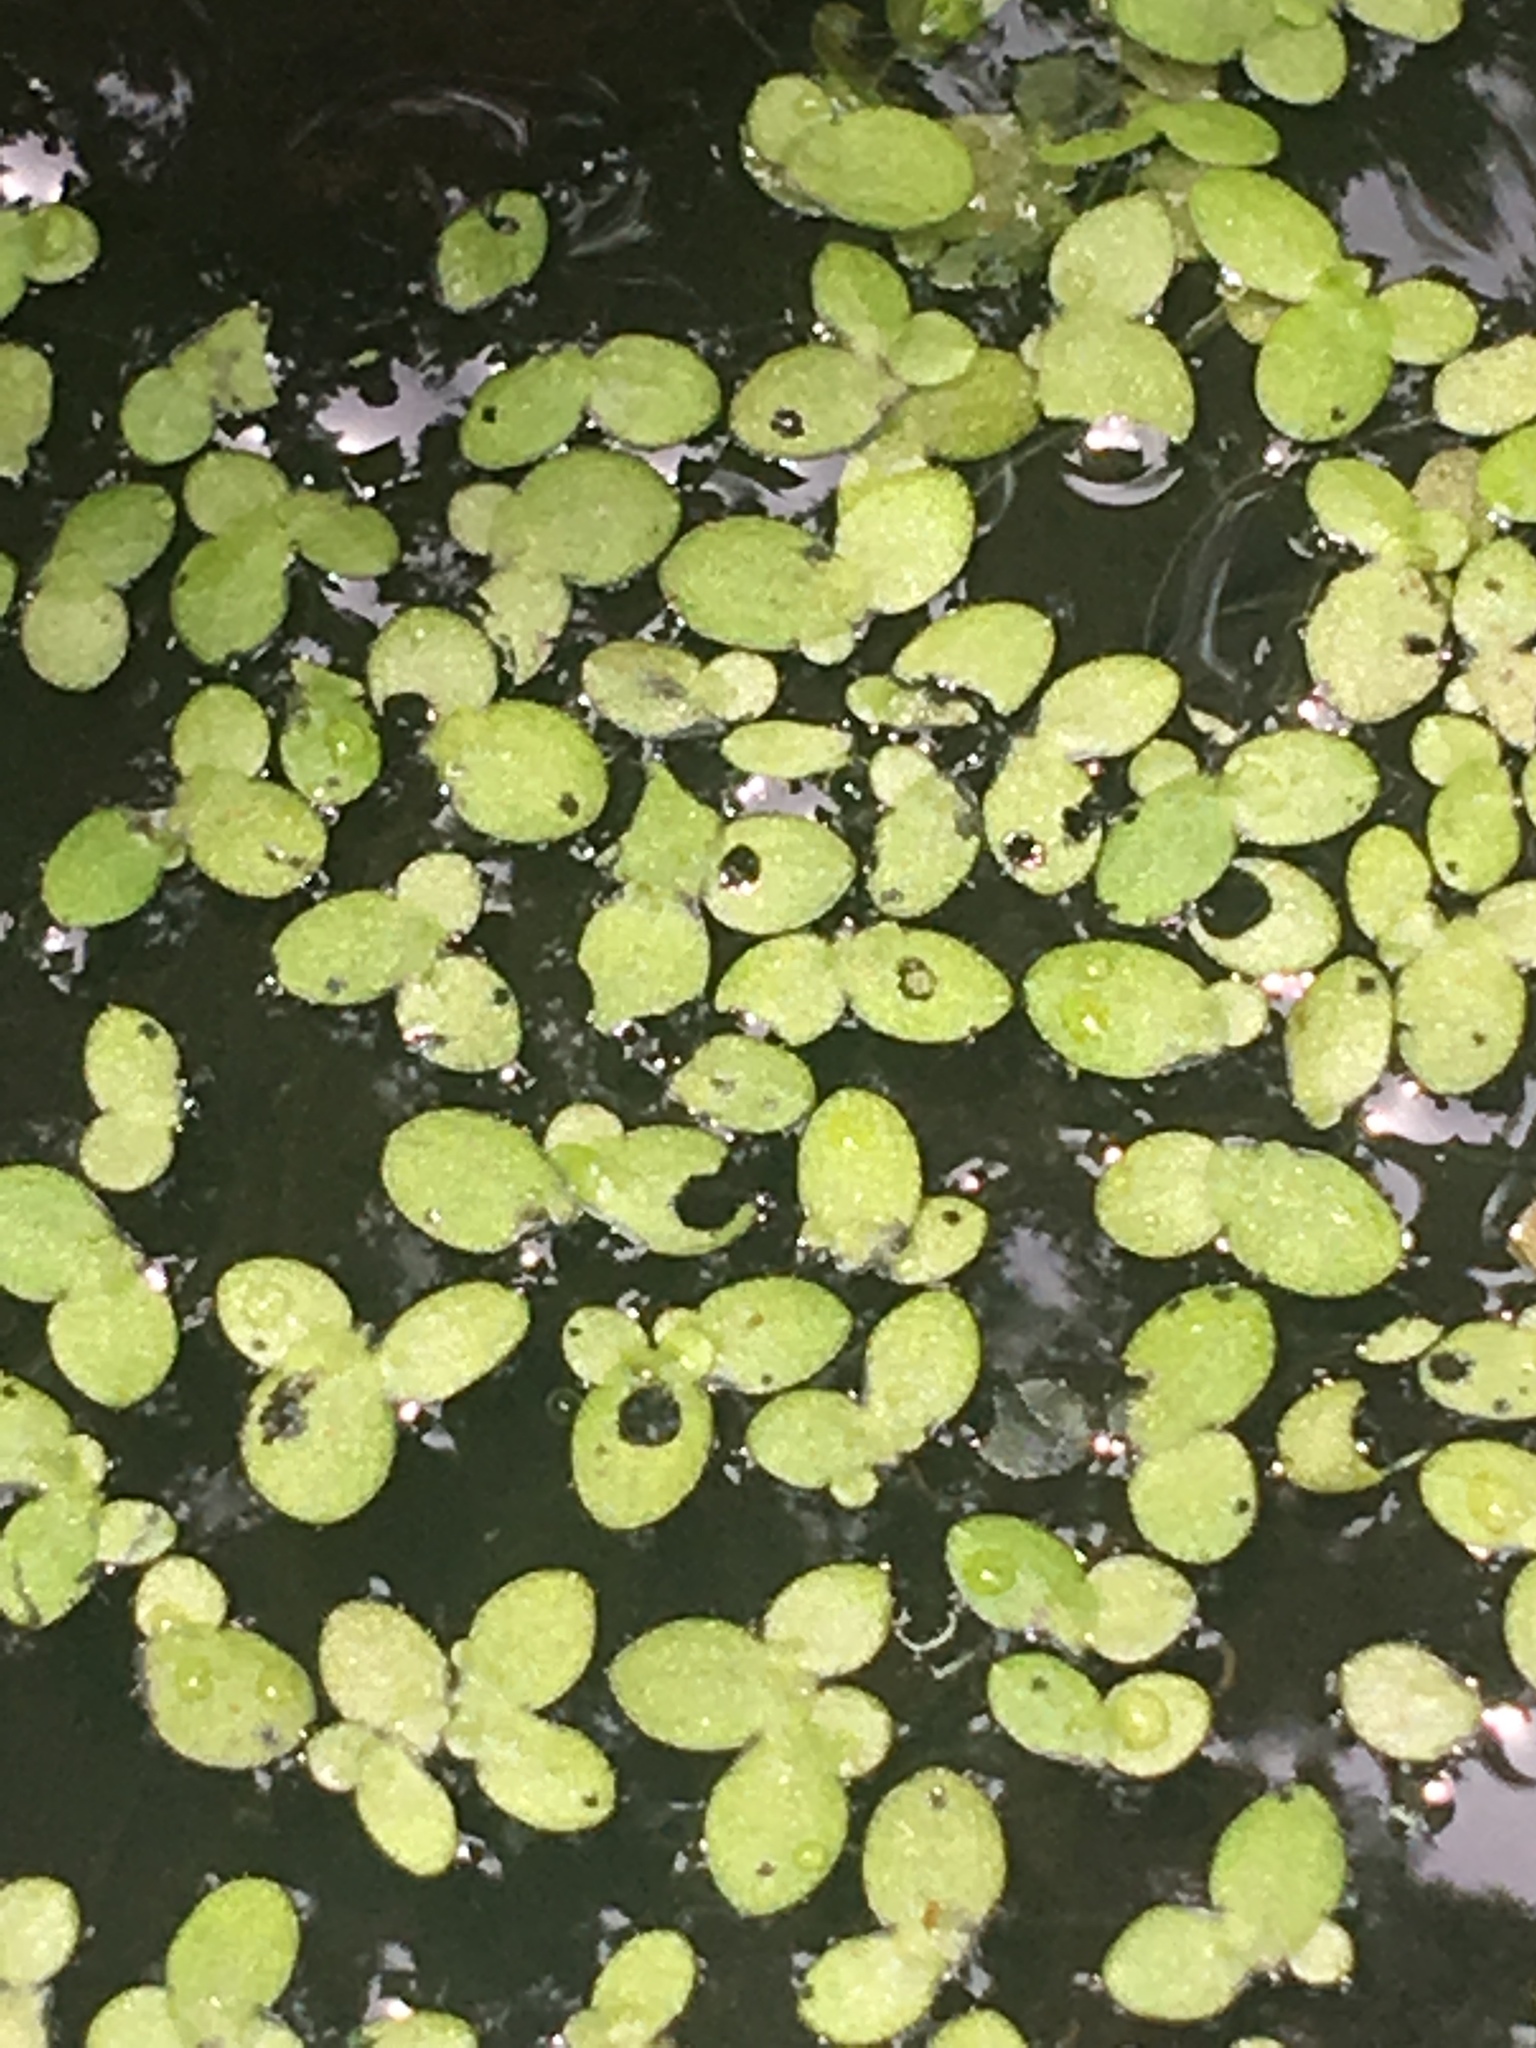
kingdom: Plantae
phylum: Tracheophyta
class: Liliopsida
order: Alismatales
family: Araceae
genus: Lemna
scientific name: Lemna minor
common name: Common duckweed
